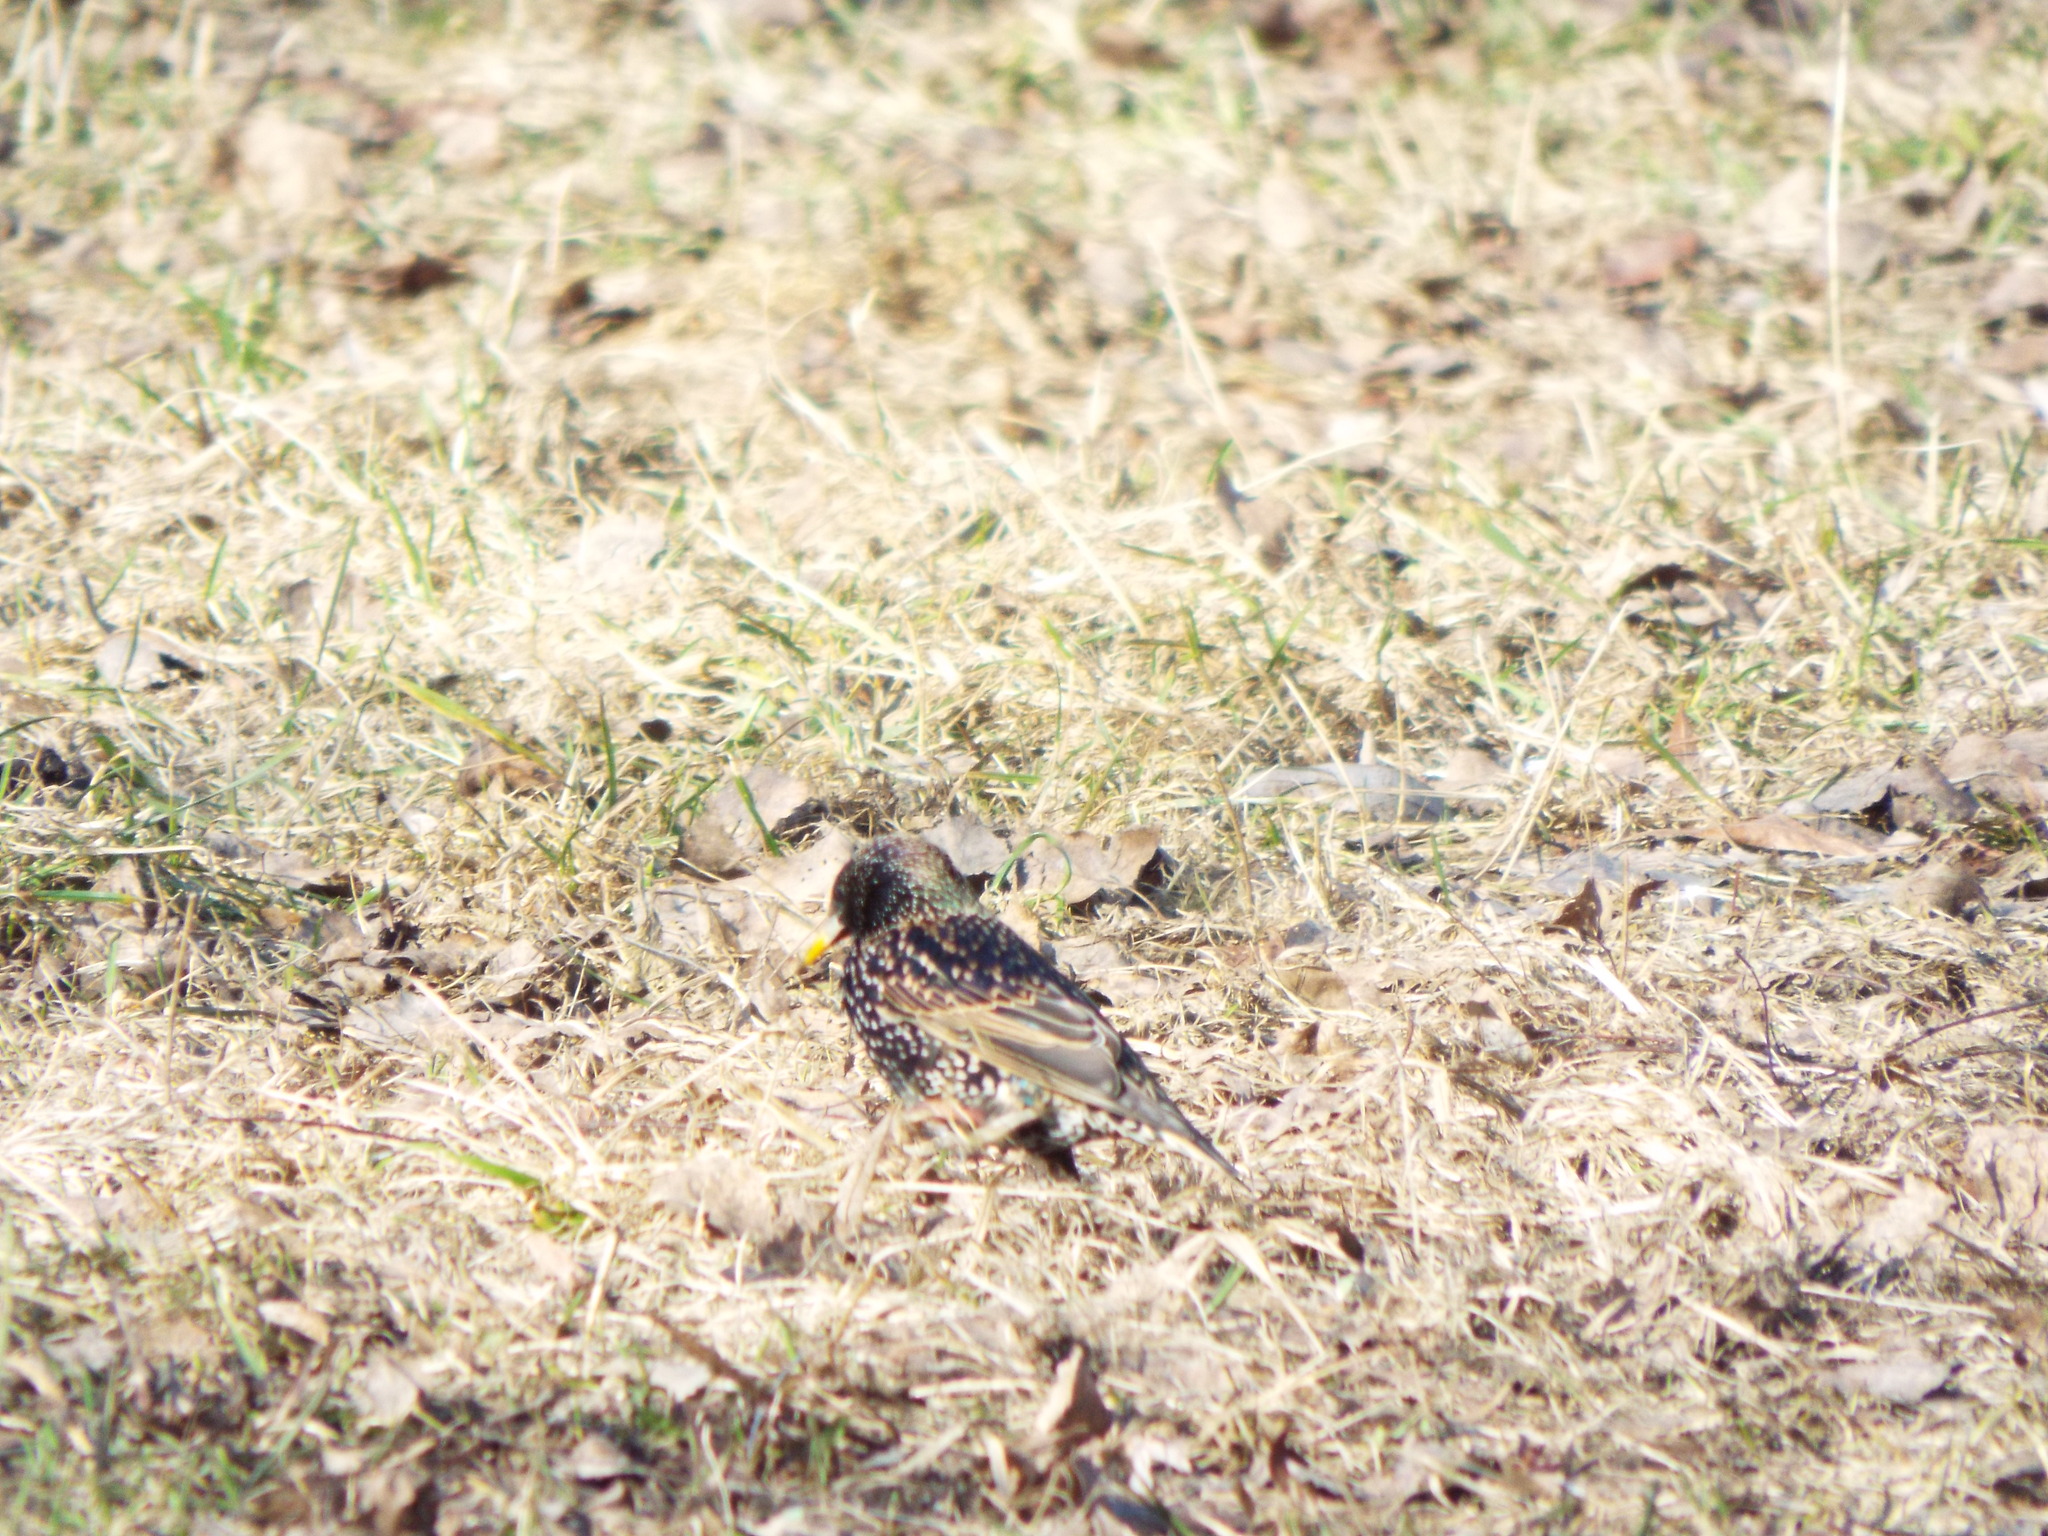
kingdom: Animalia
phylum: Chordata
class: Aves
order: Passeriformes
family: Sturnidae
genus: Sturnus
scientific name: Sturnus vulgaris
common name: Common starling
